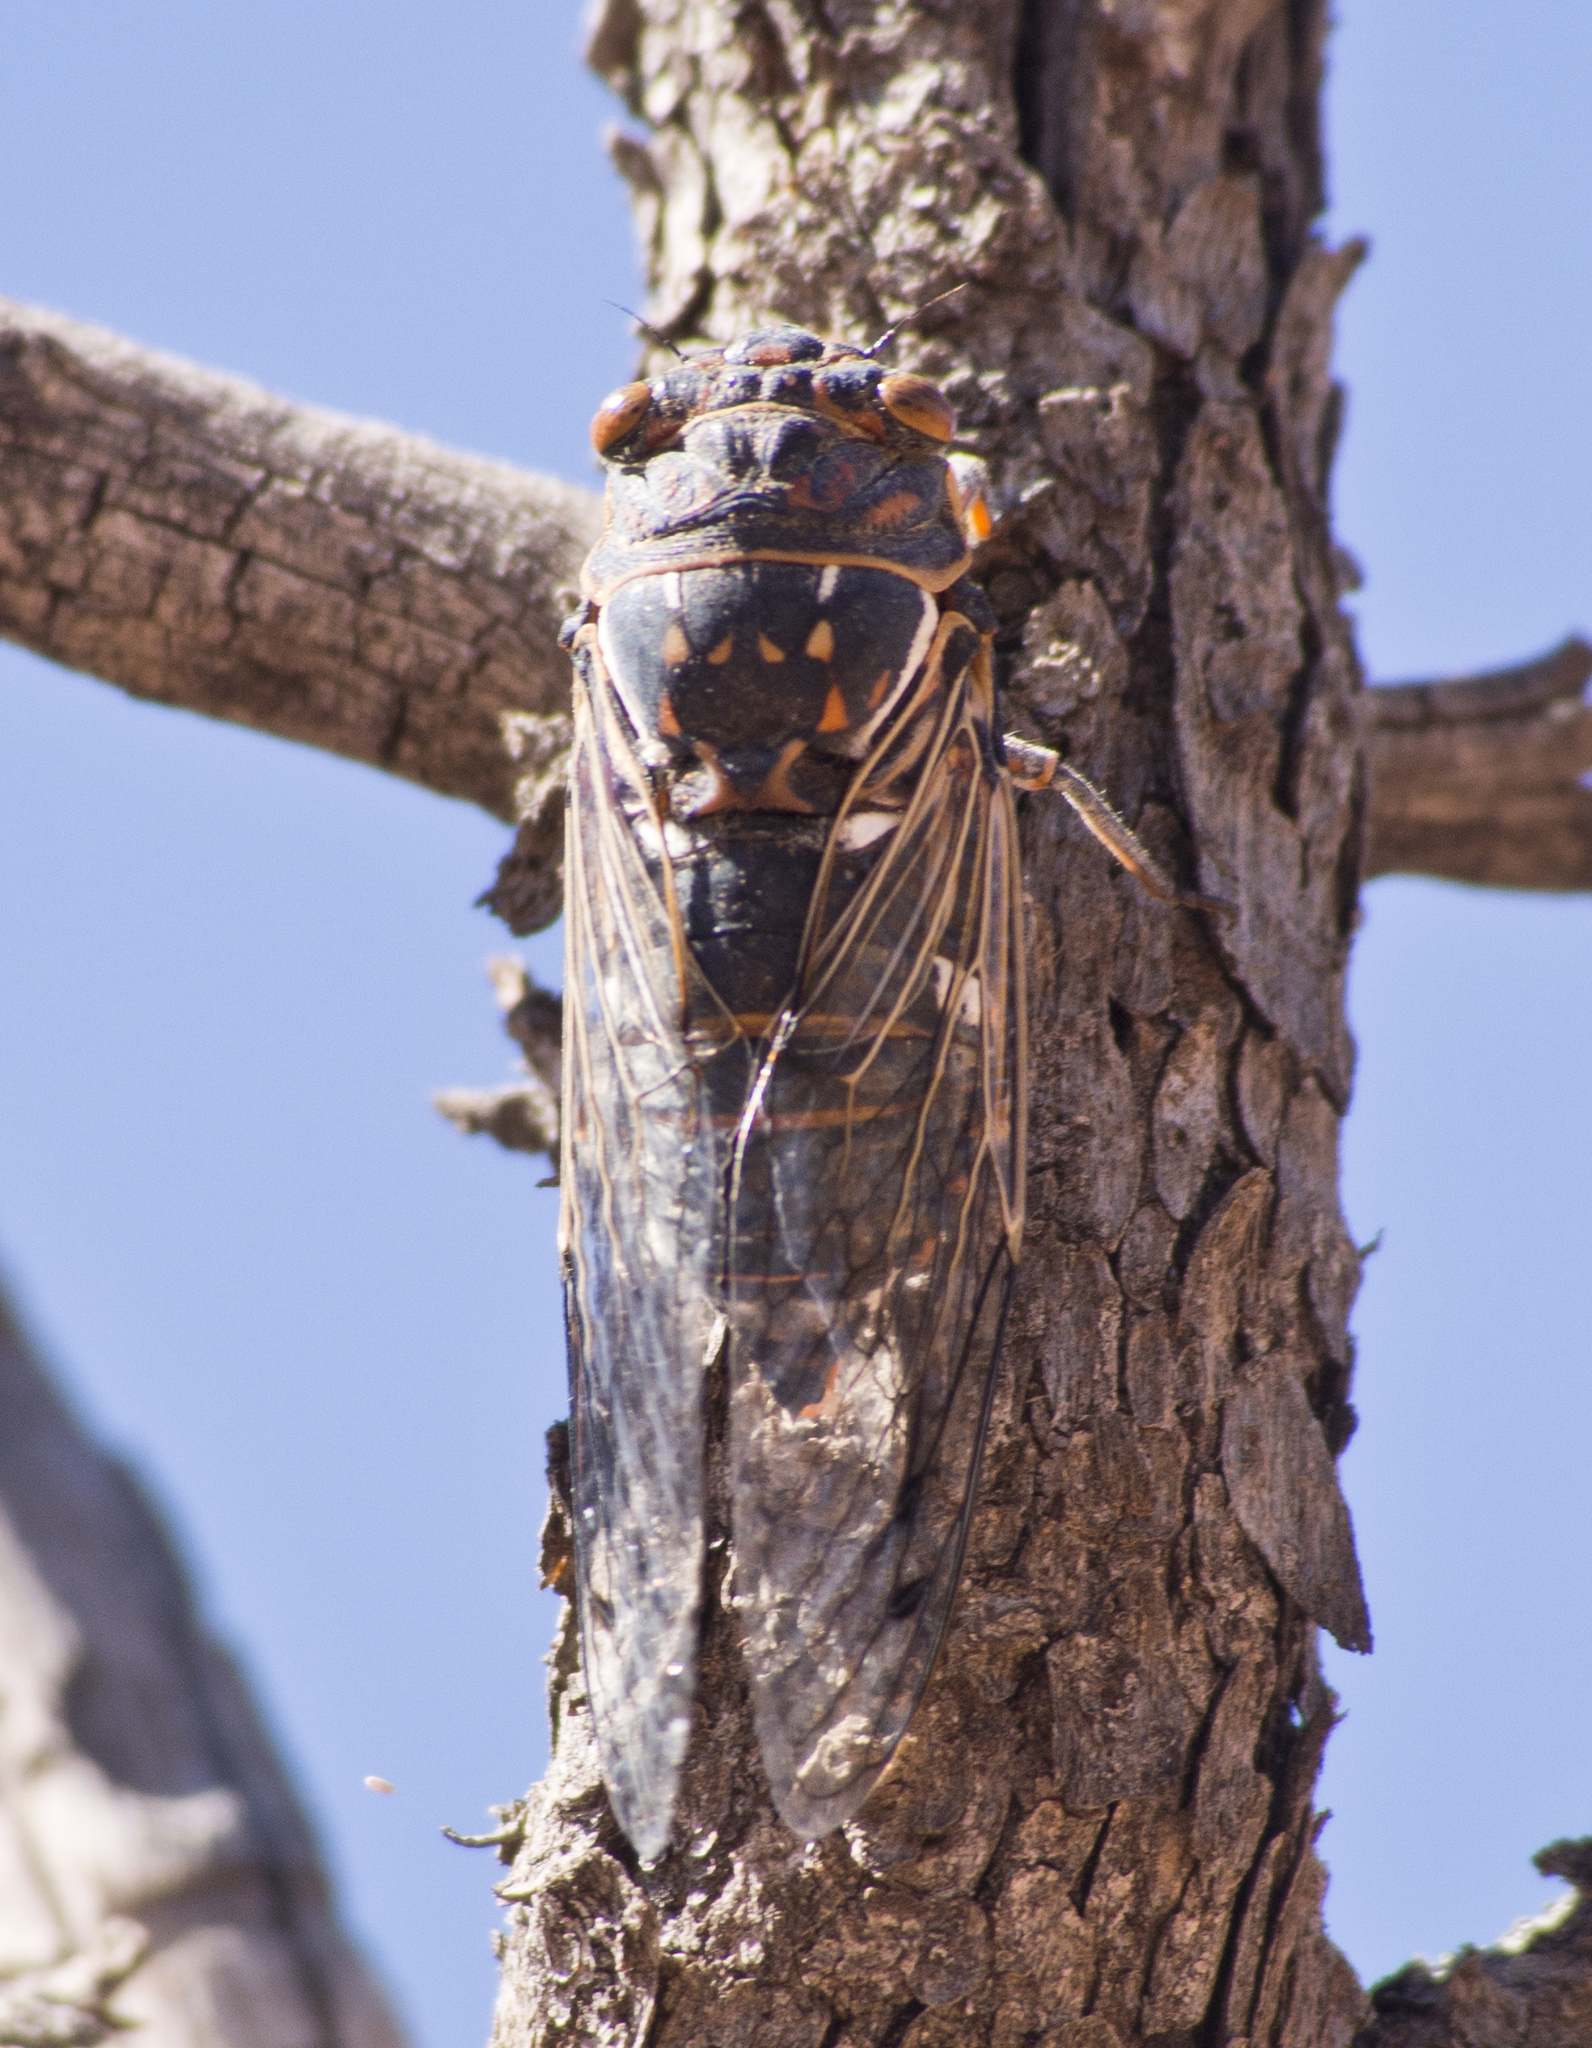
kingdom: Animalia
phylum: Arthropoda
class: Insecta
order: Hemiptera
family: Cicadidae
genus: Hadoa
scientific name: Hadoa duryi
